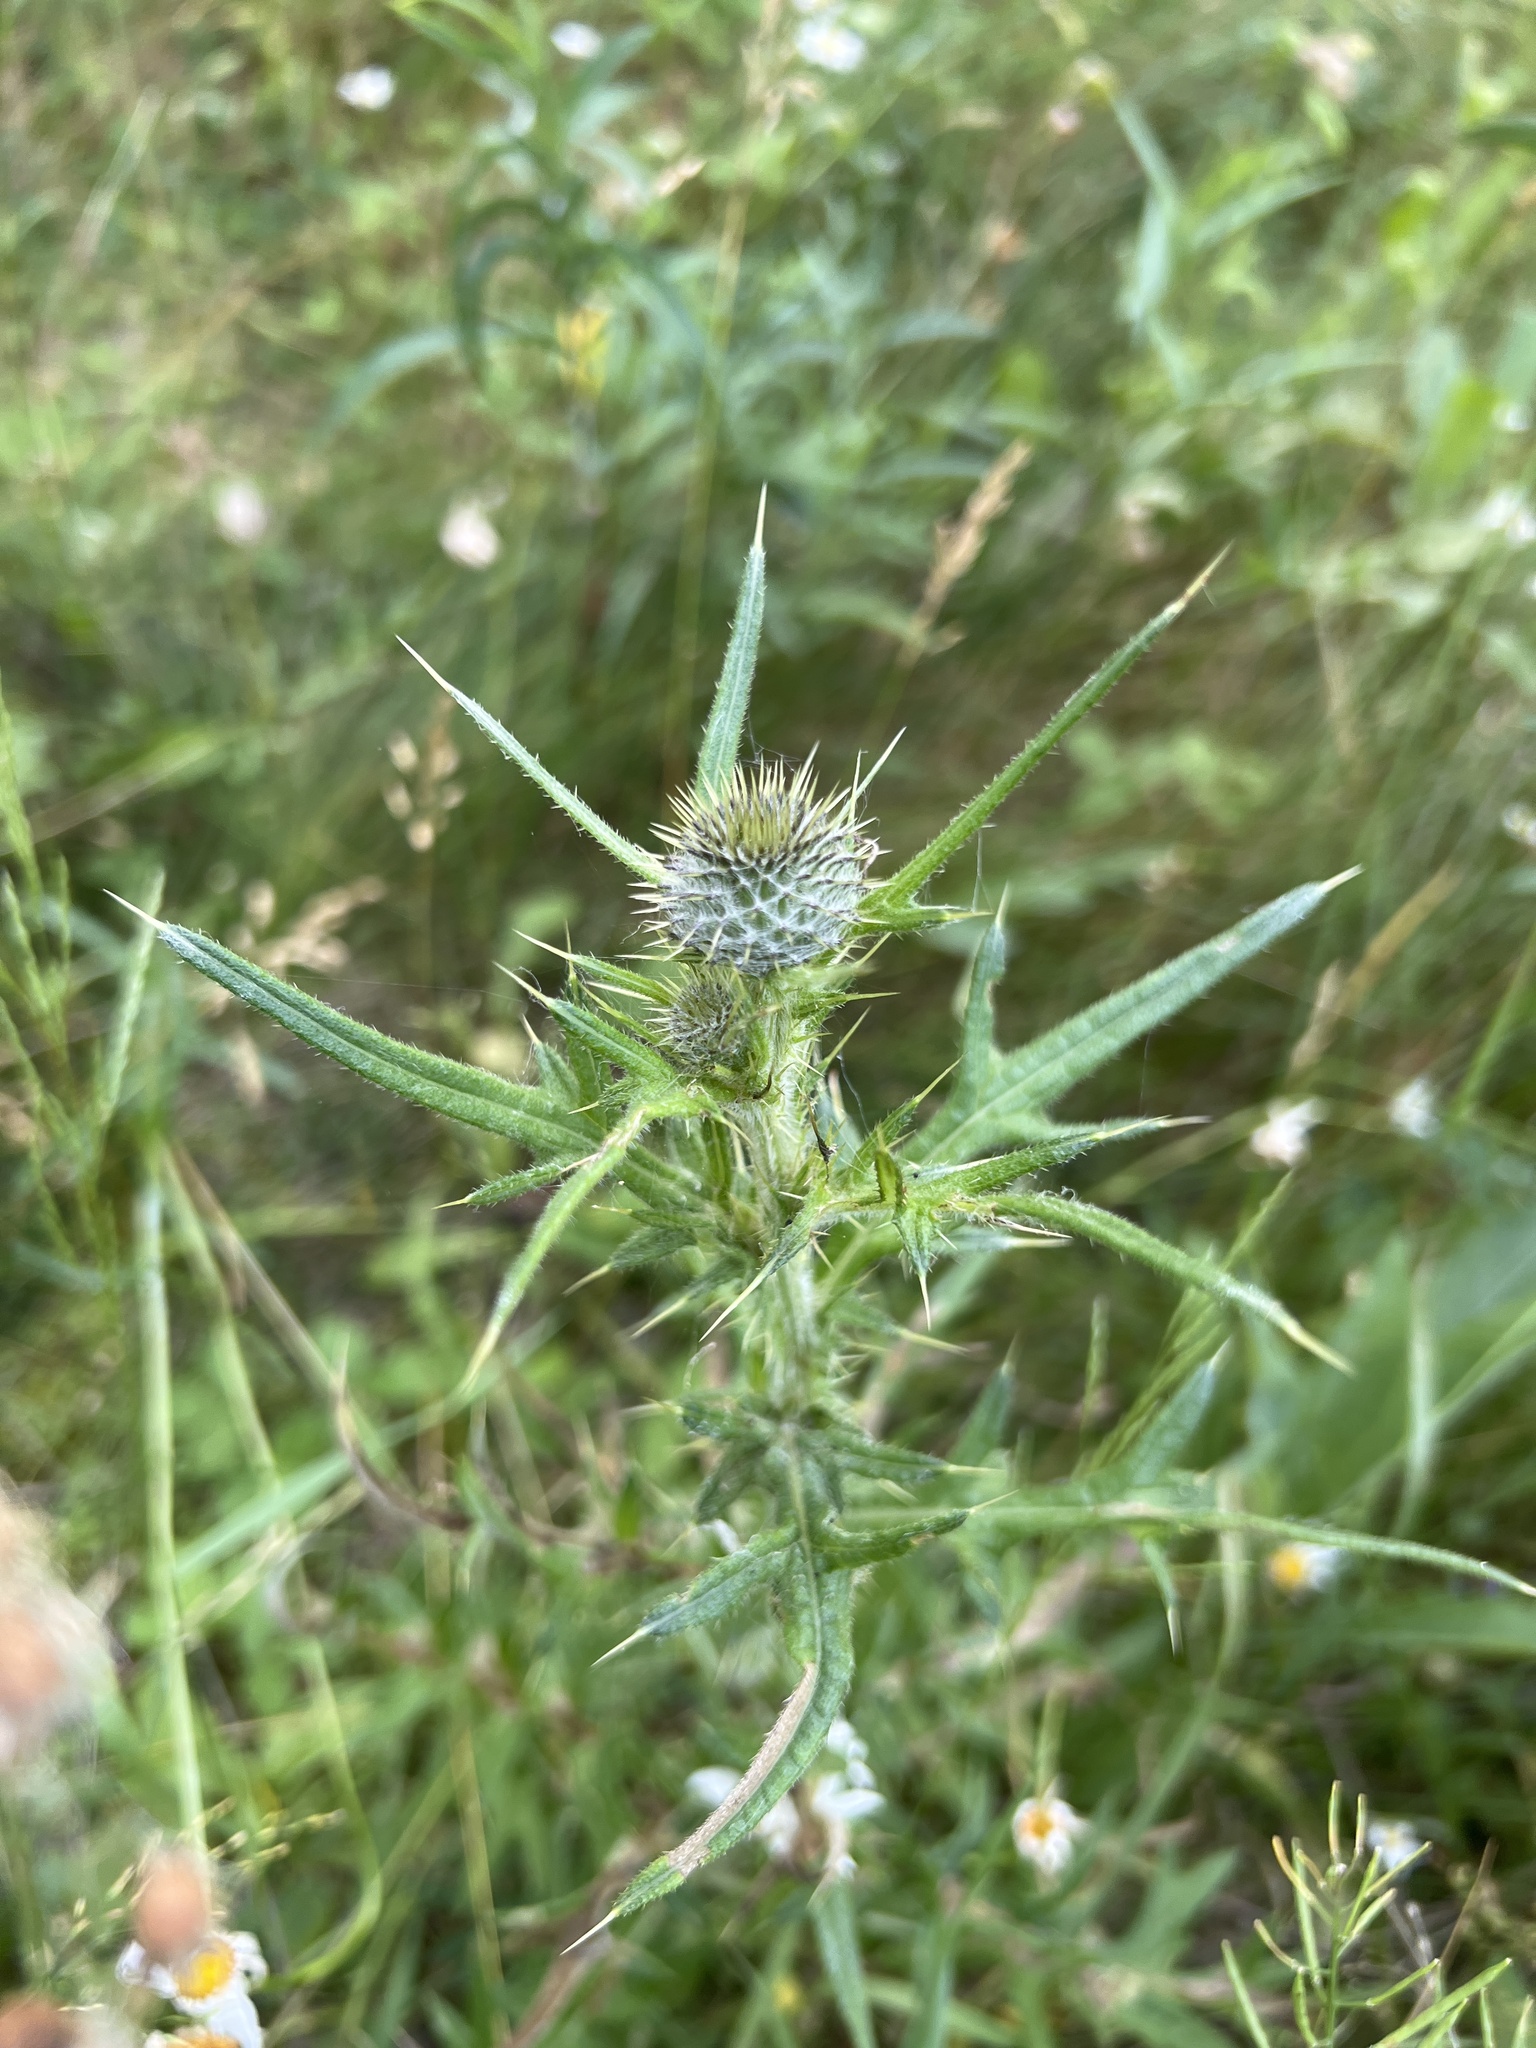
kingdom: Plantae
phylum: Tracheophyta
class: Magnoliopsida
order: Asterales
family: Asteraceae
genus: Cirsium
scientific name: Cirsium vulgare
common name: Bull thistle
